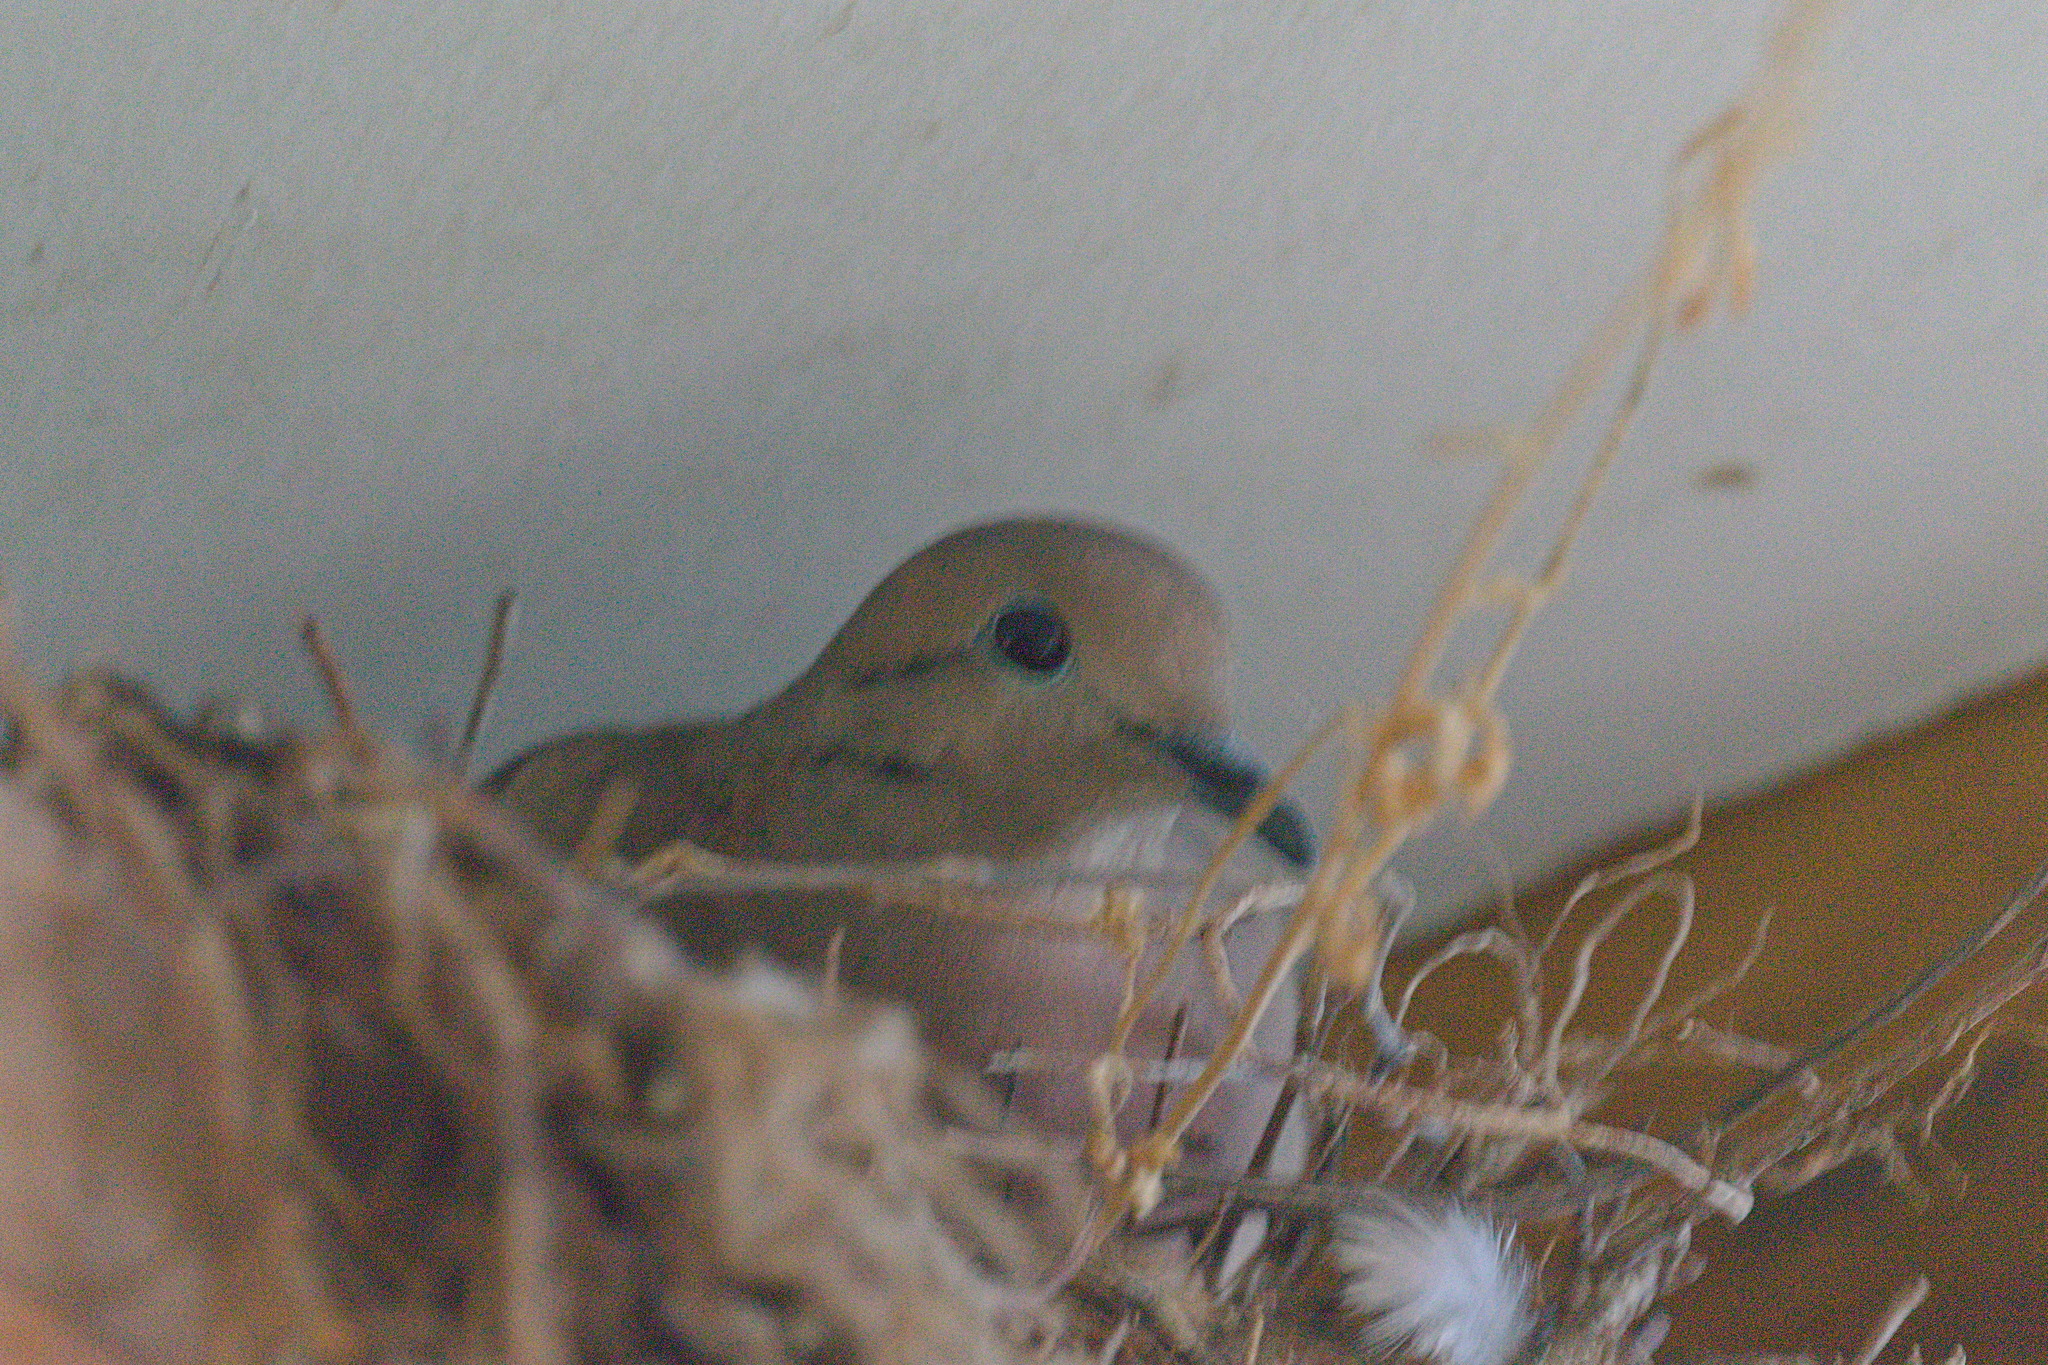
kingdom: Animalia
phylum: Chordata
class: Aves
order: Columbiformes
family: Columbidae
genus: Zenaida
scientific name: Zenaida auriculata
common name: Eared dove
